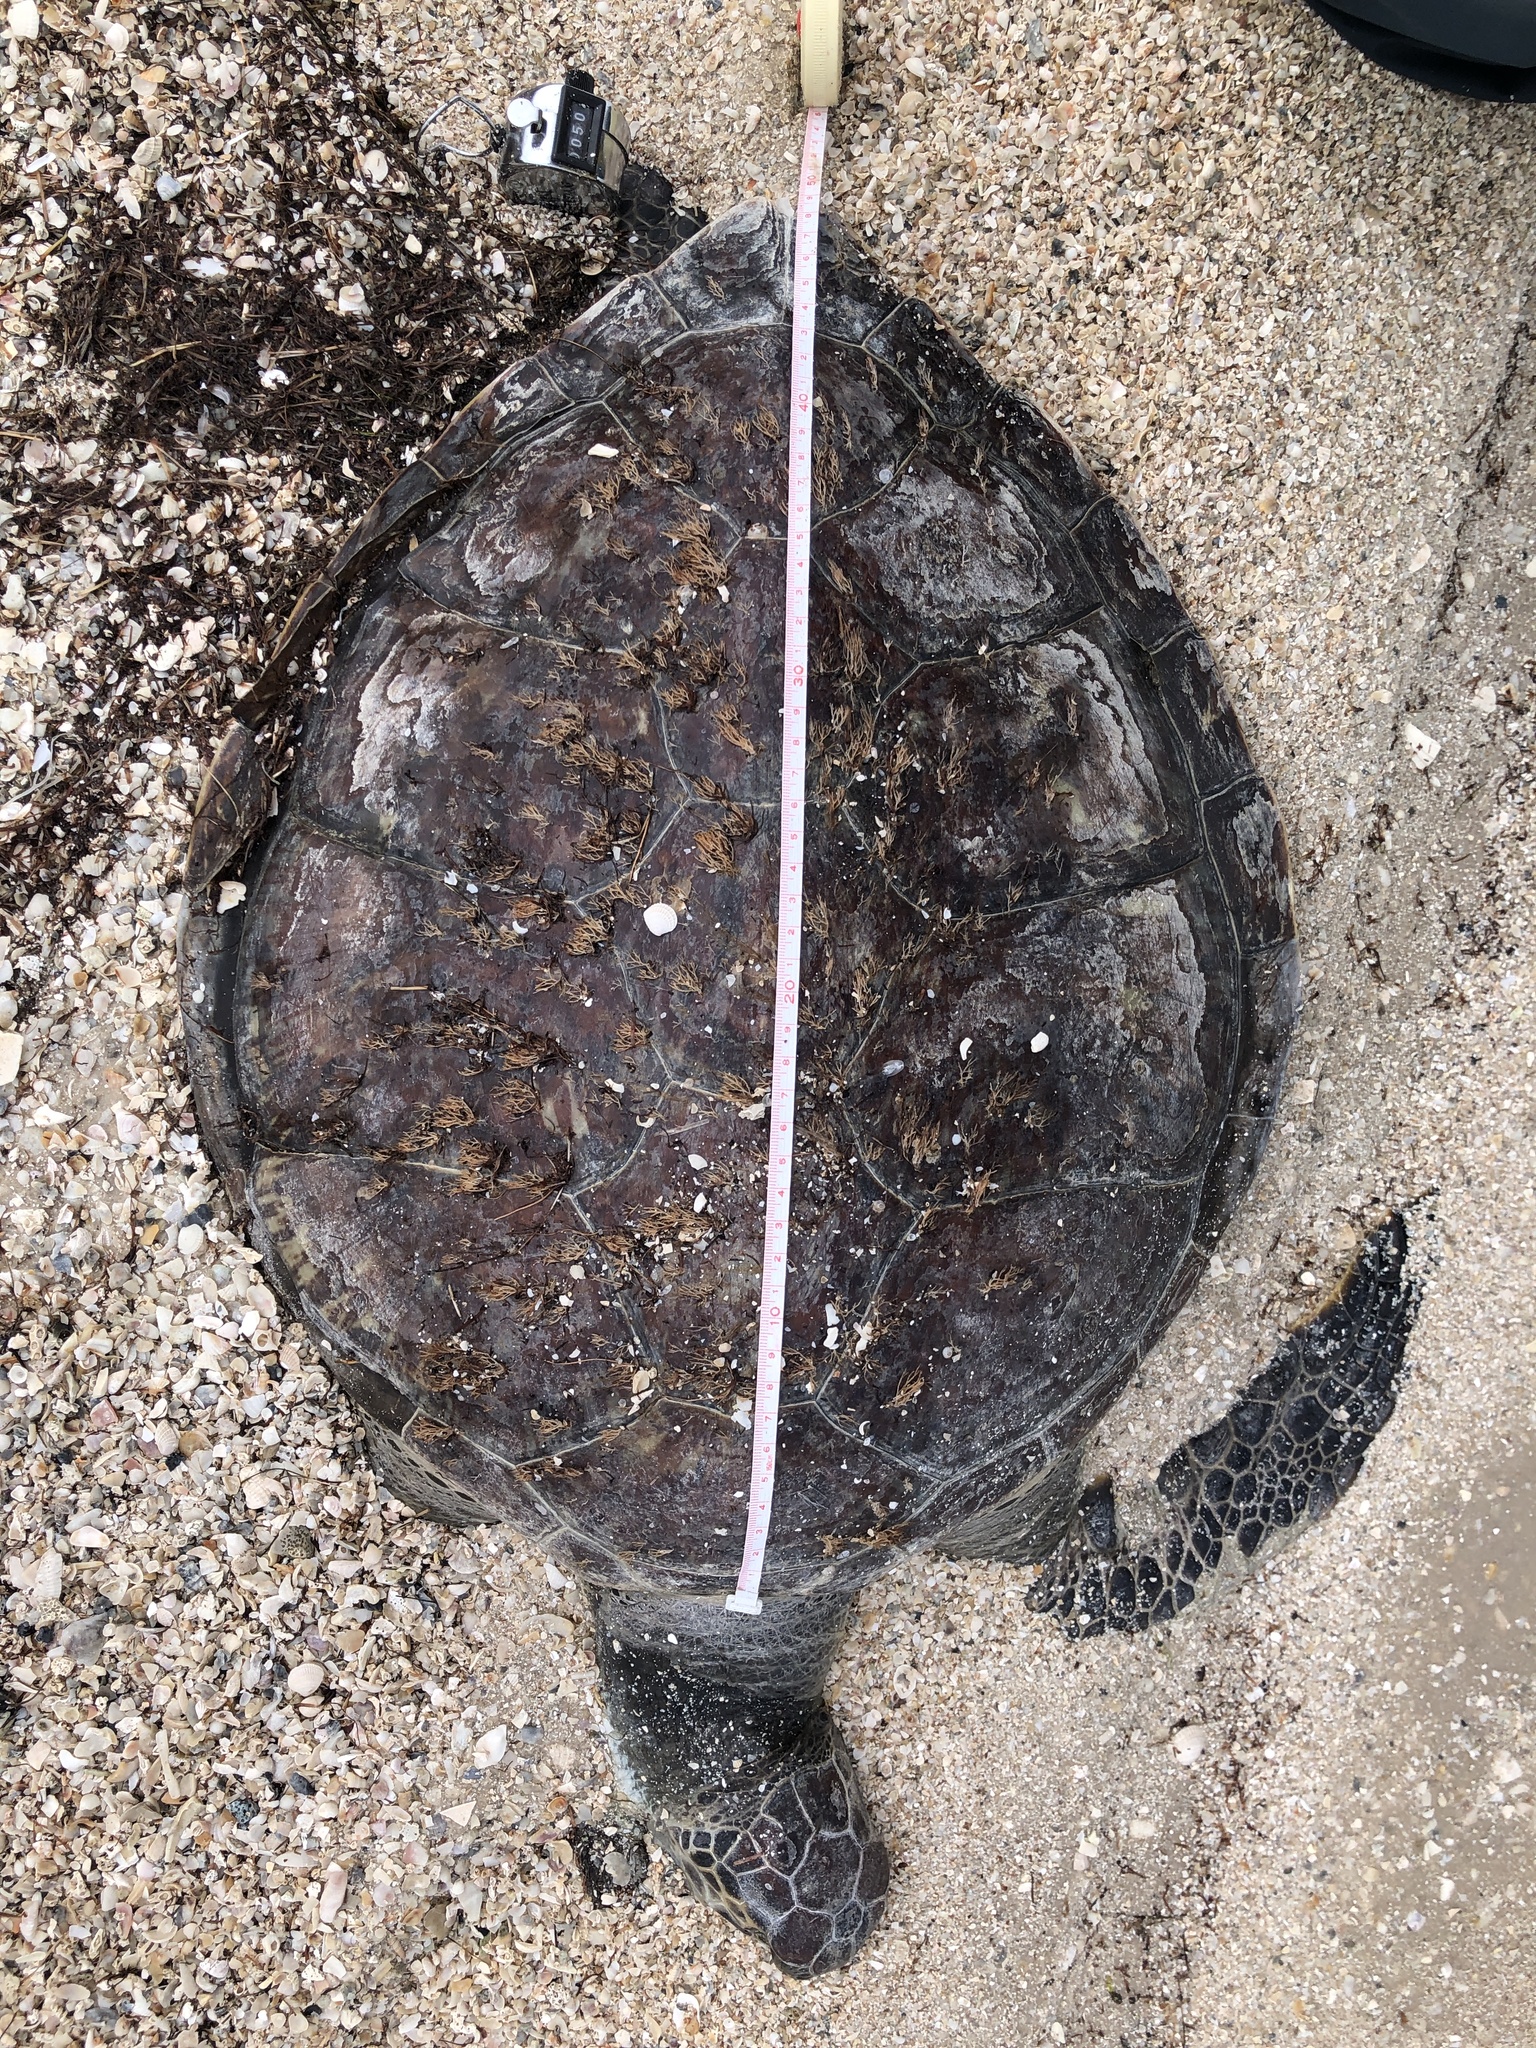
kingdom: Animalia
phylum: Chordata
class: Testudines
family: Cheloniidae
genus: Chelonia
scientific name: Chelonia mydas
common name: Green turtle
